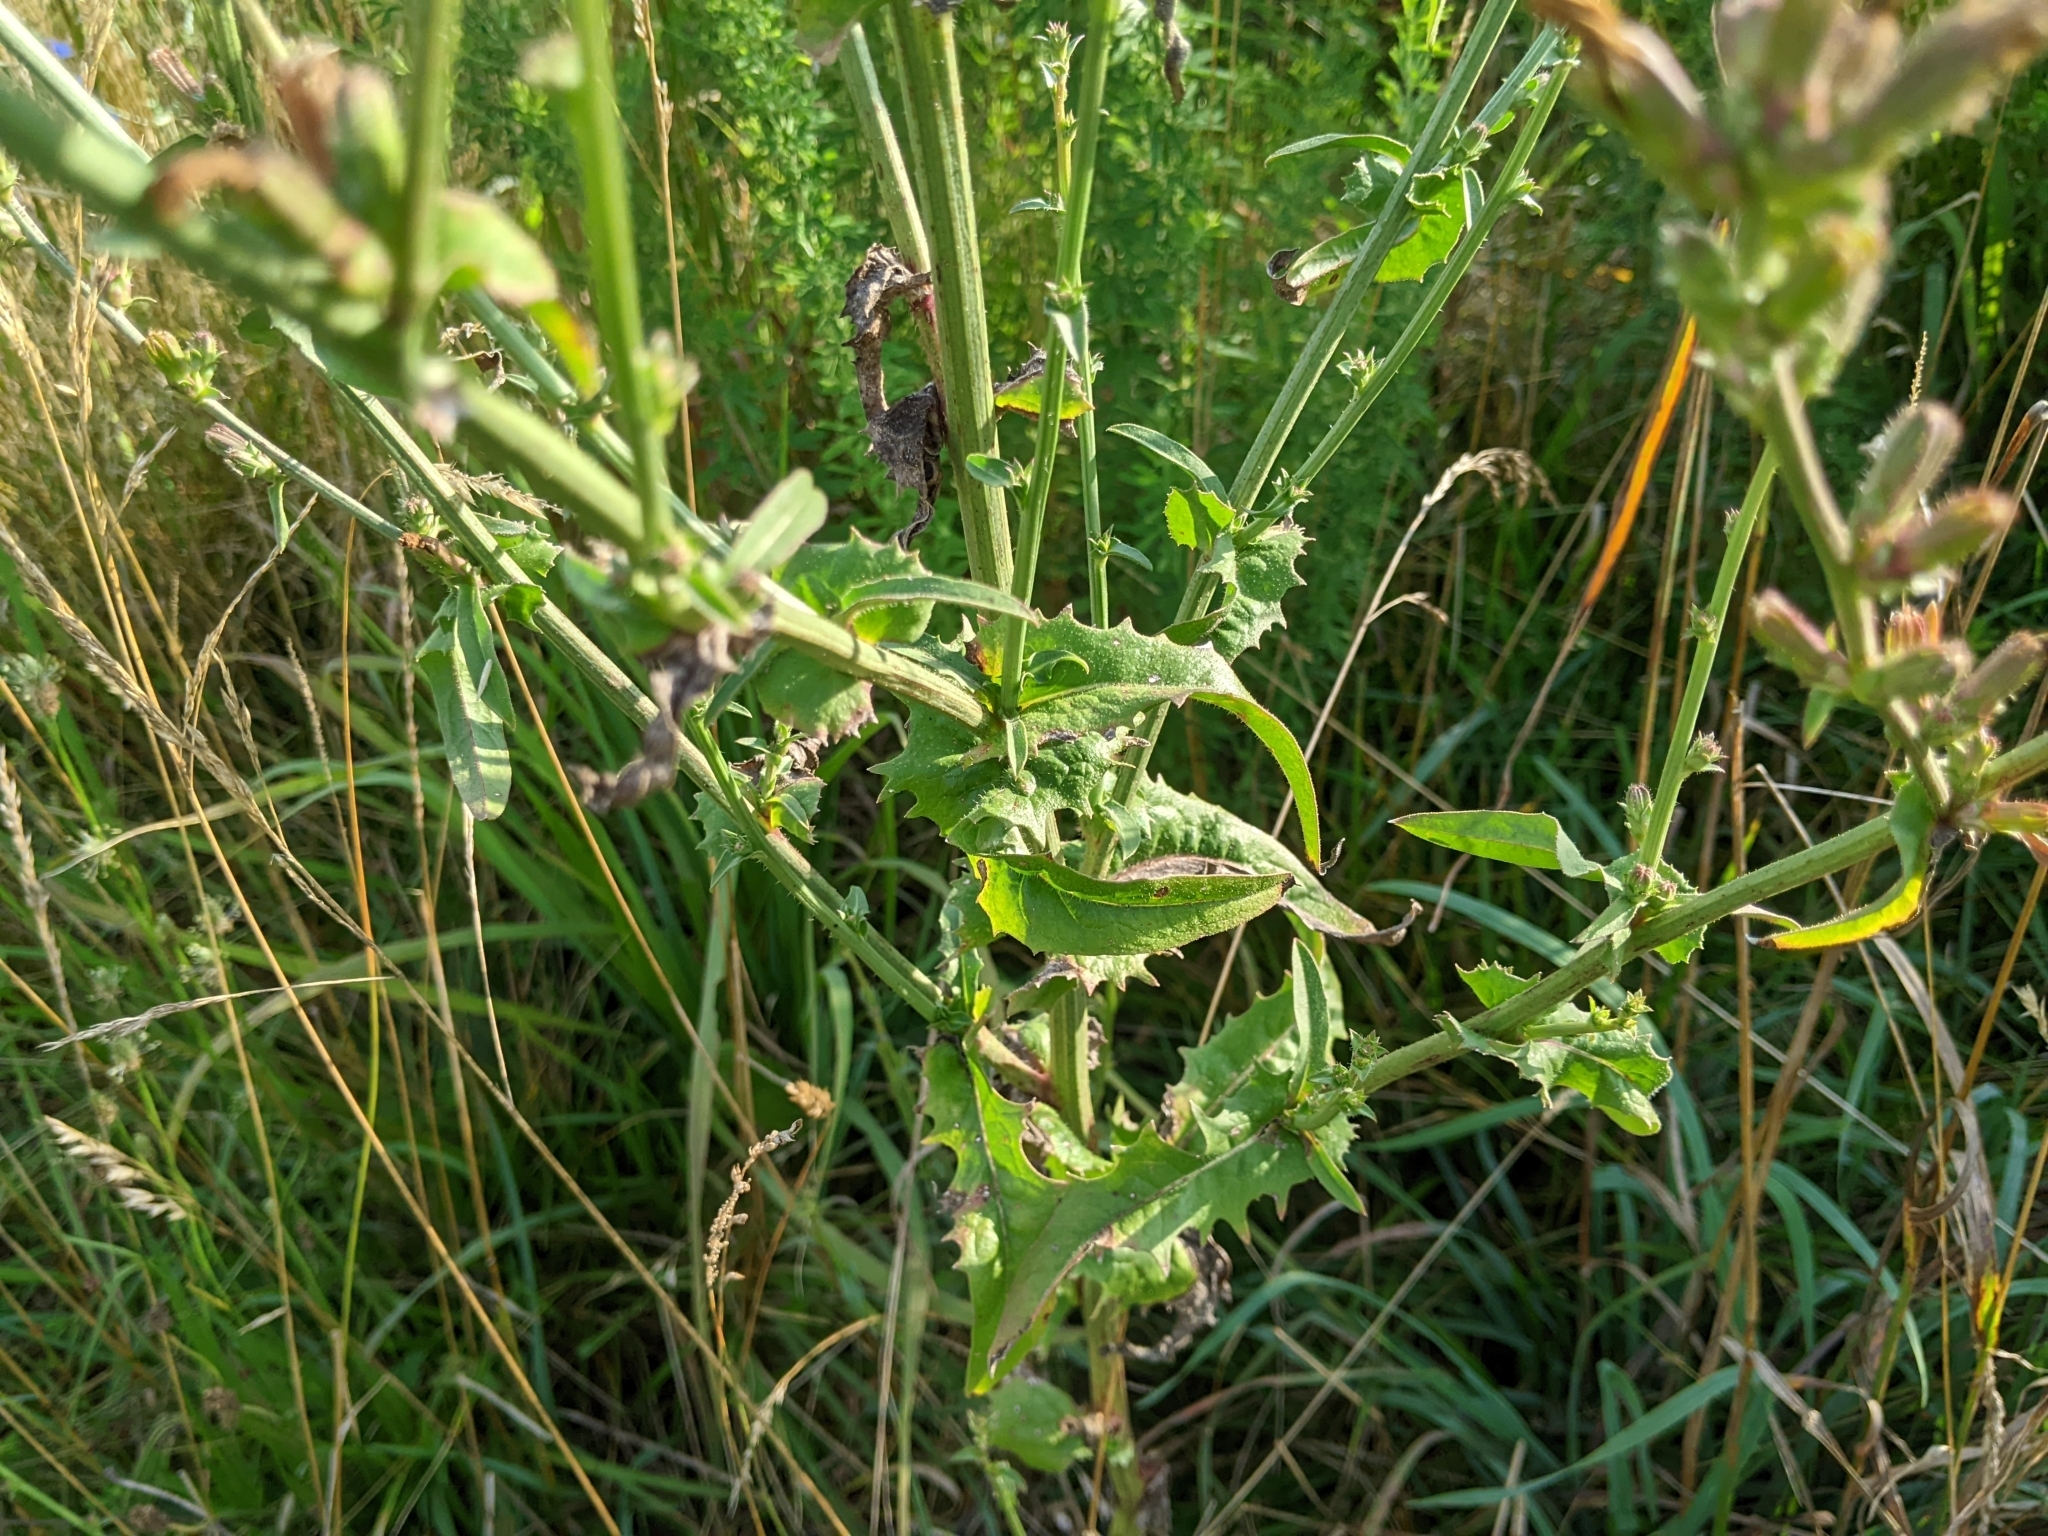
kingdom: Plantae
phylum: Tracheophyta
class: Magnoliopsida
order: Asterales
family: Asteraceae
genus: Cichorium
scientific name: Cichorium intybus
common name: Chicory
